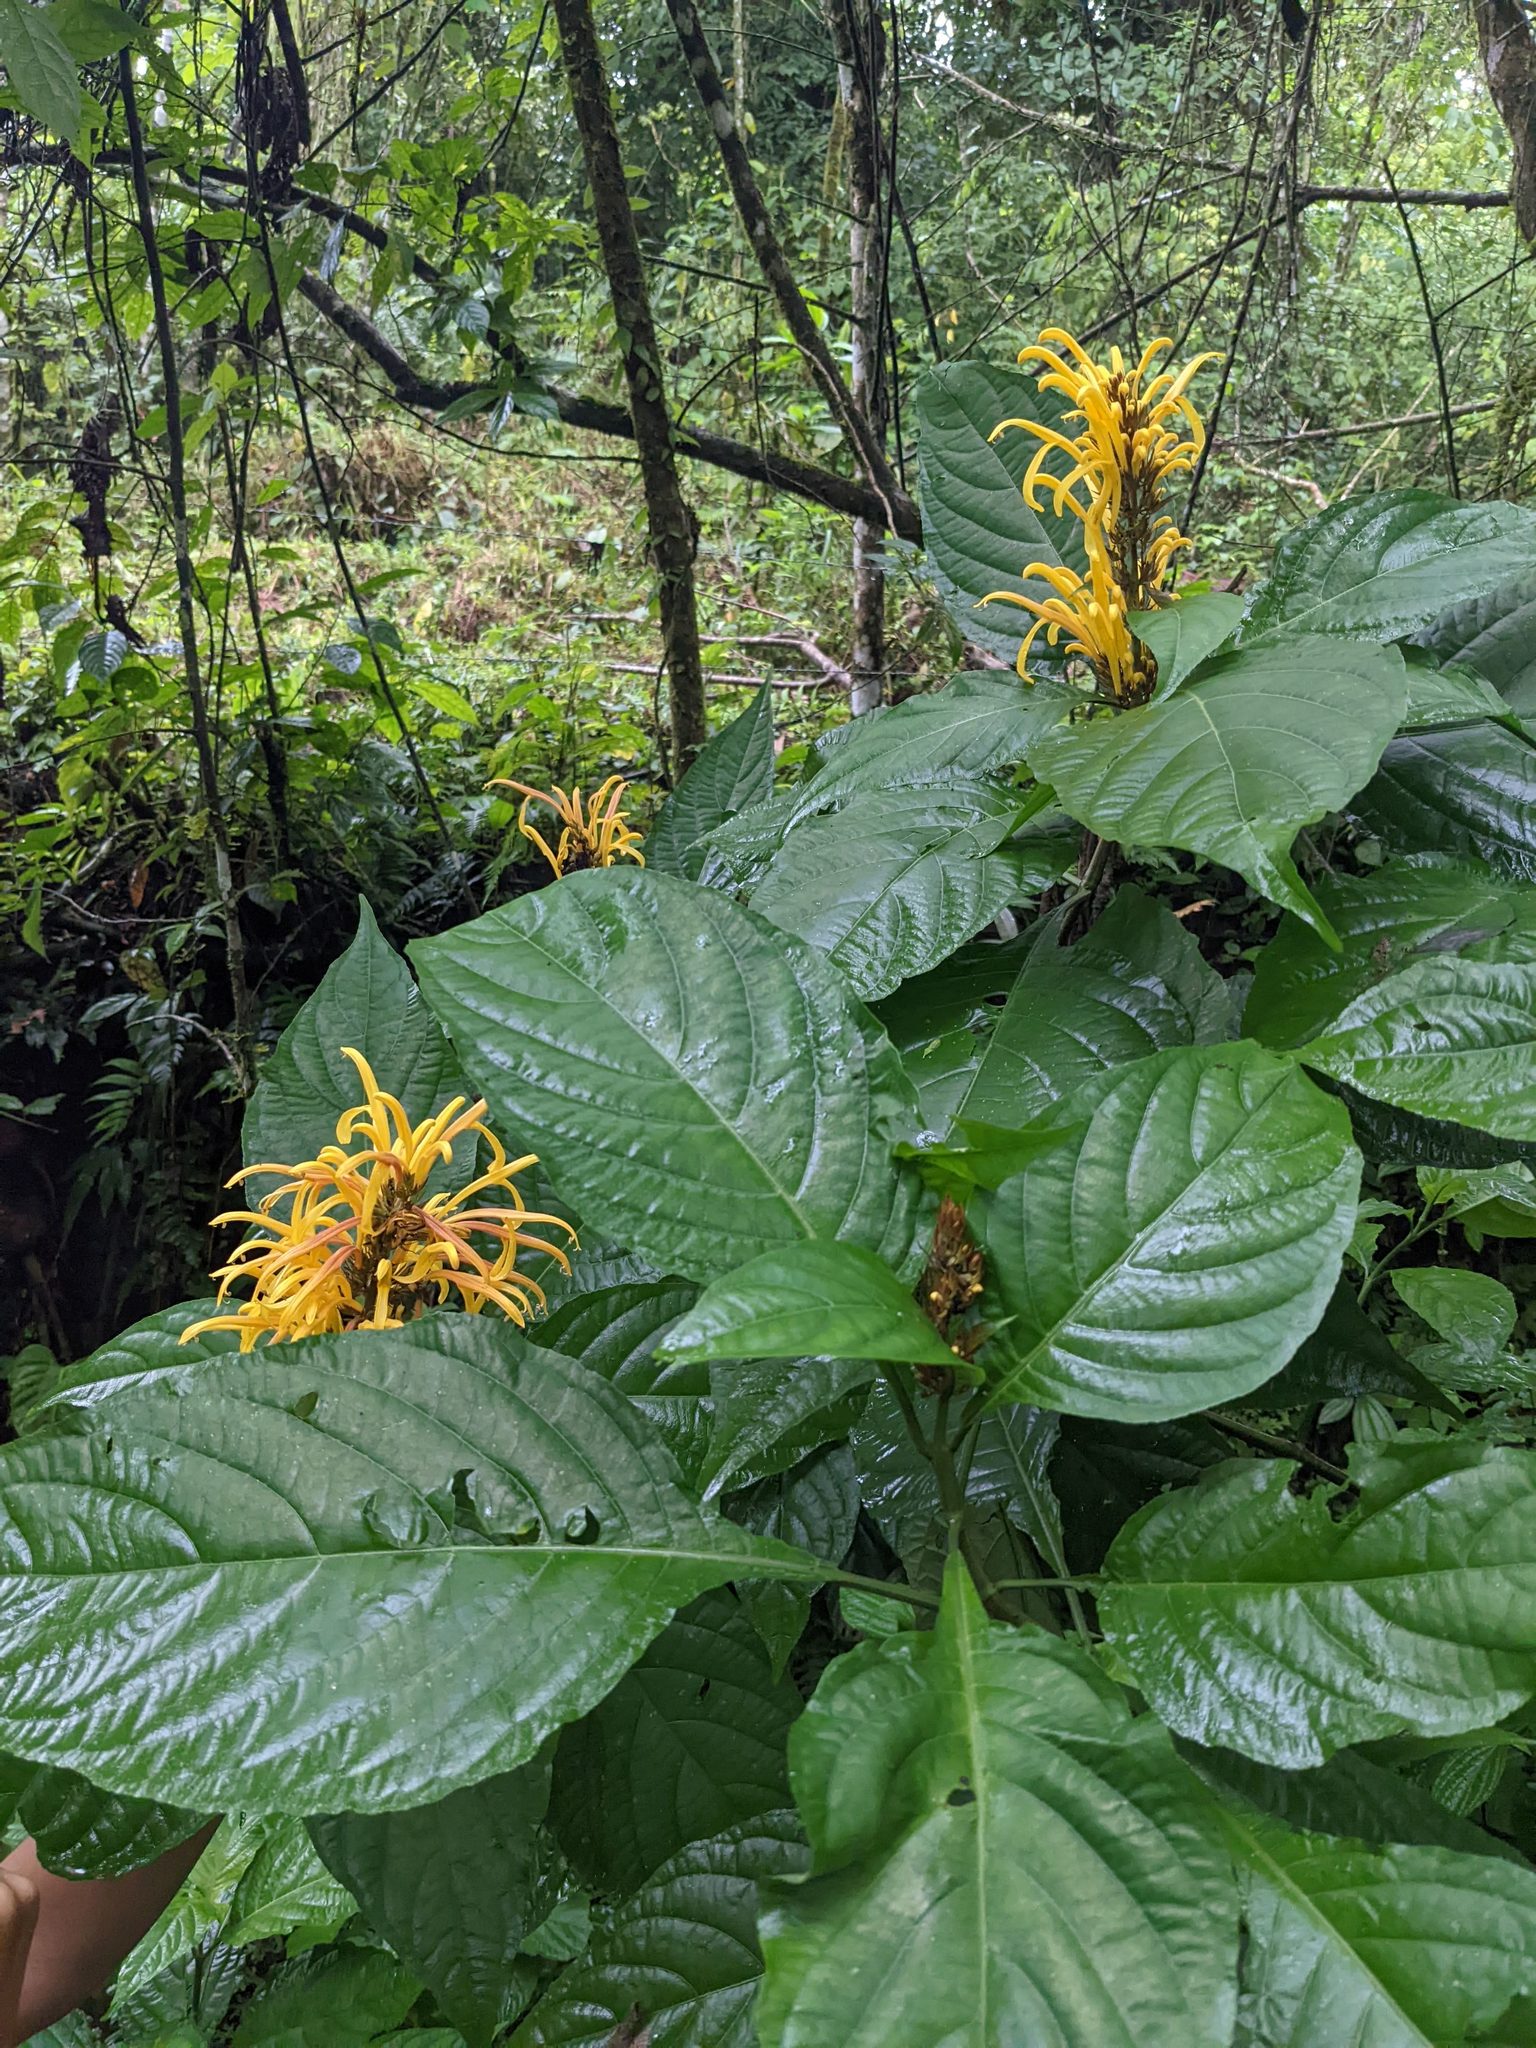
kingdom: Plantae
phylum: Tracheophyta
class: Magnoliopsida
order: Lamiales
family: Acanthaceae
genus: Justicia
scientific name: Justicia aurea
